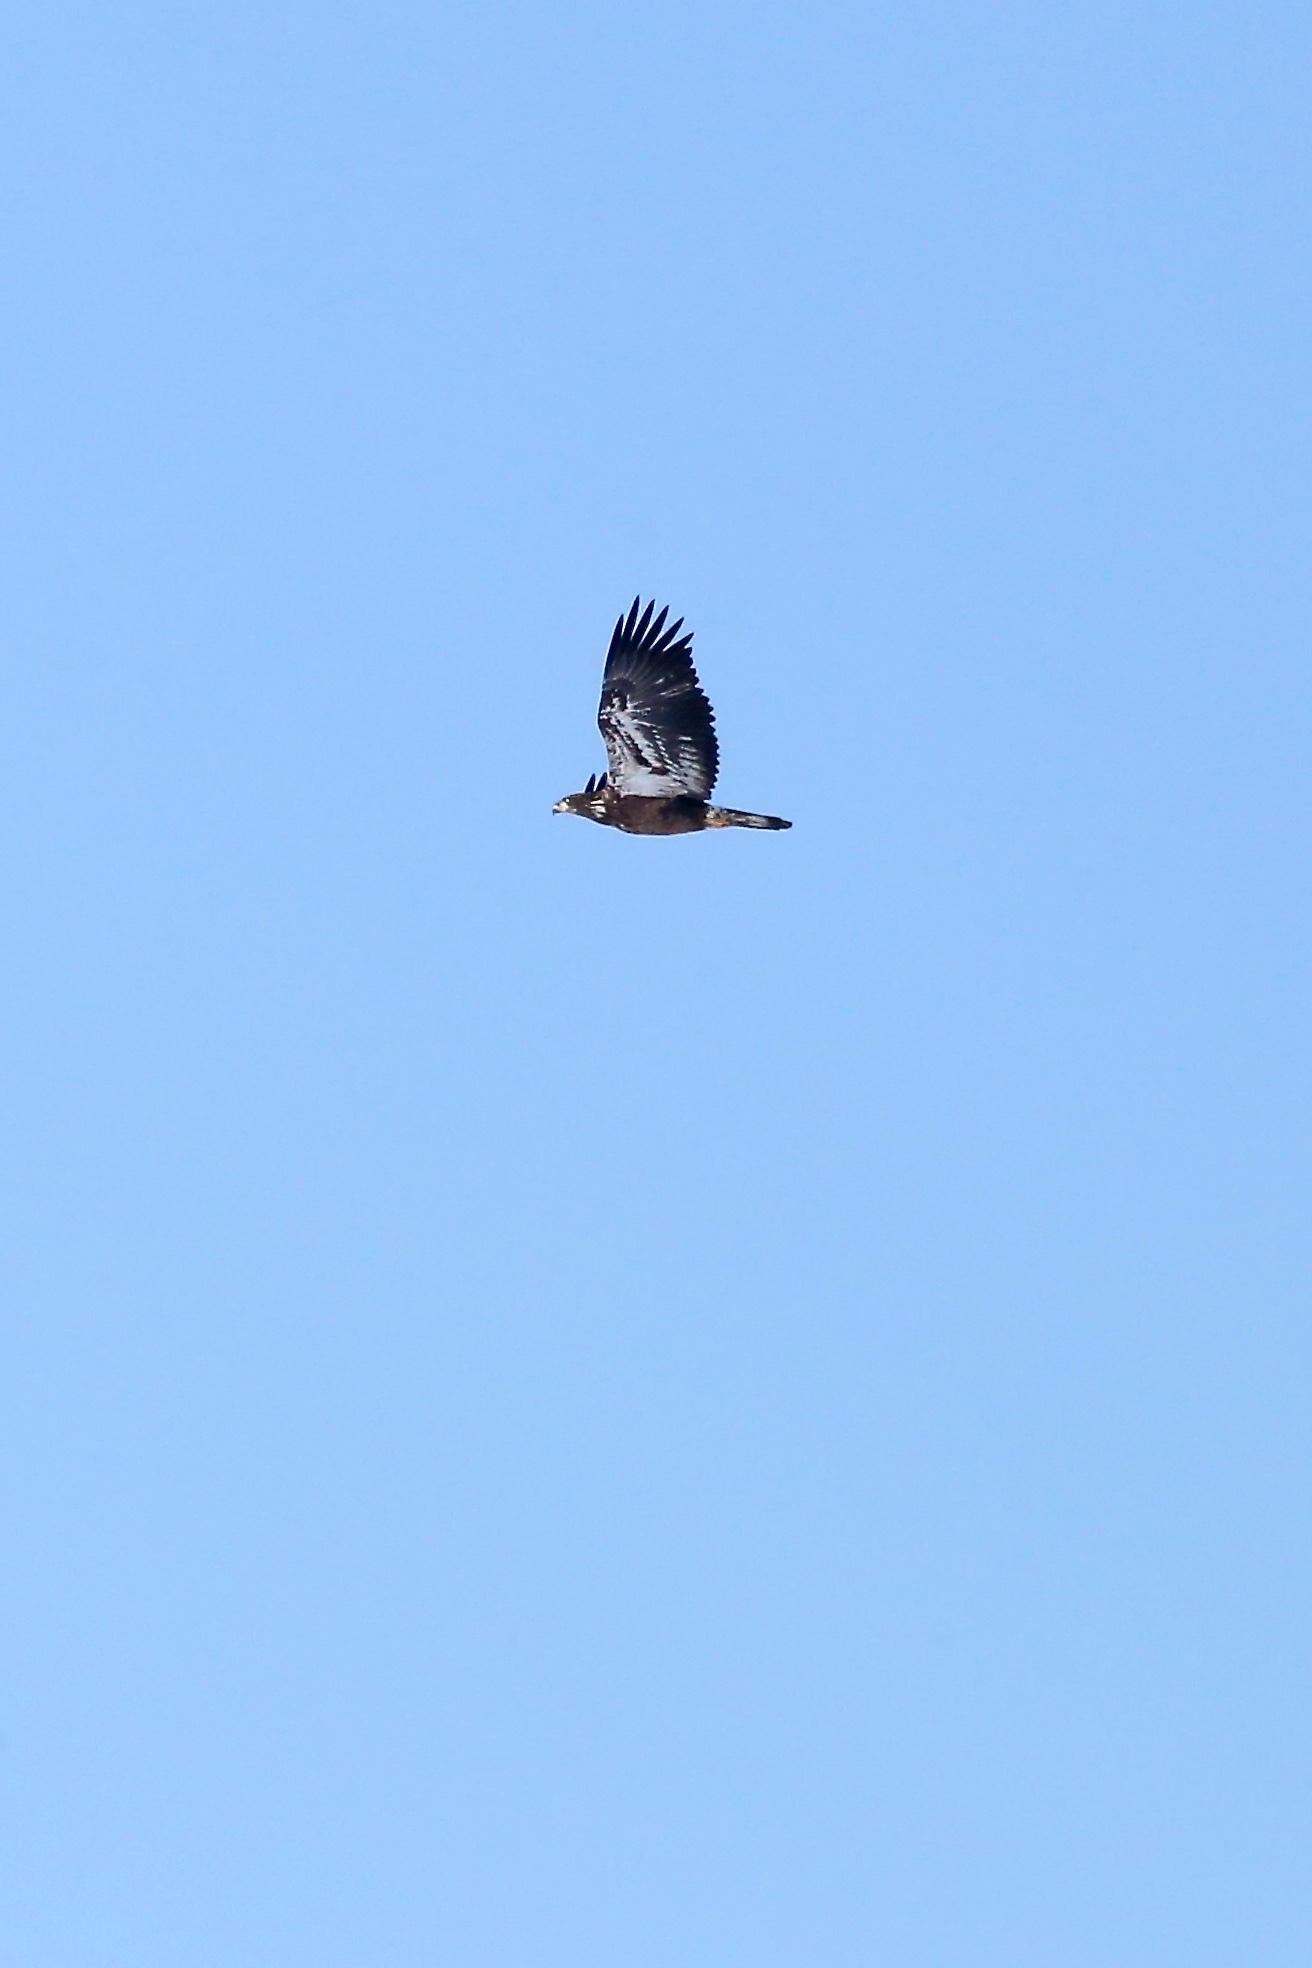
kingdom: Animalia
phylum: Chordata
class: Aves
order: Accipitriformes
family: Accipitridae
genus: Haliaeetus
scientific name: Haliaeetus leucocephalus
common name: Bald eagle
